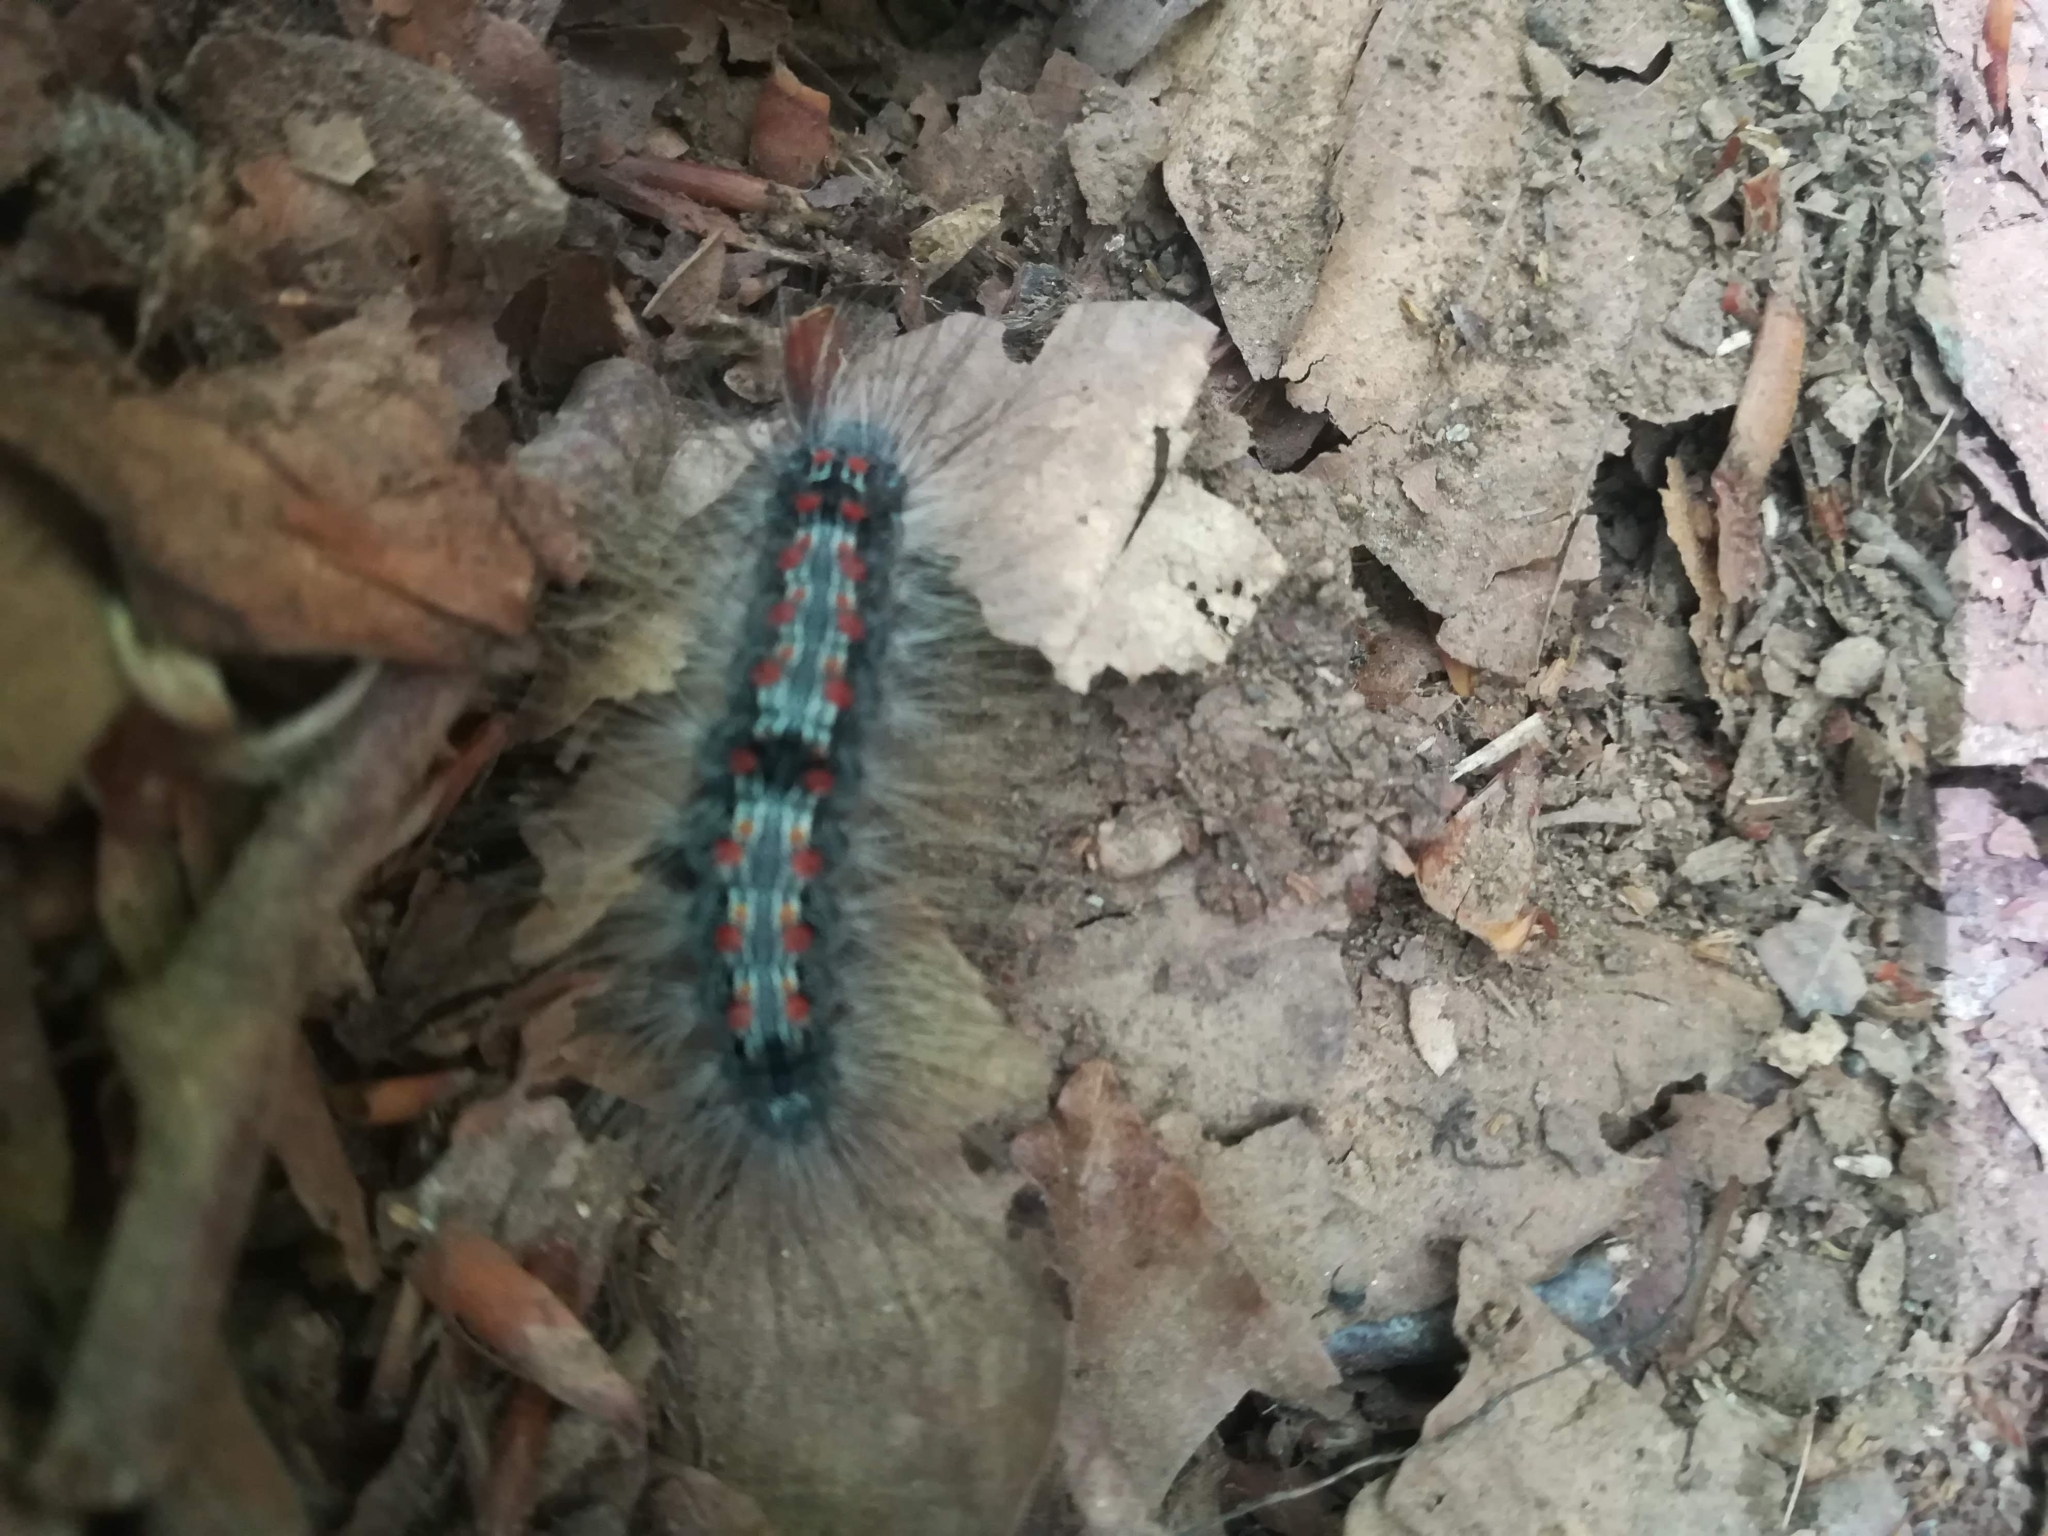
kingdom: Animalia
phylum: Arthropoda
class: Insecta
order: Lepidoptera
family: Erebidae
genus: Lithosia
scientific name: Lithosia quadra
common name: Four-spotted footman
